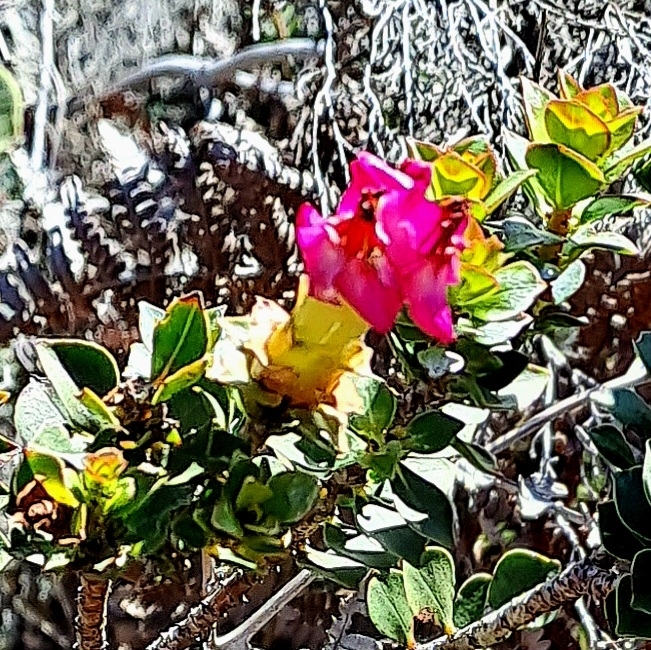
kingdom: Plantae
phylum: Tracheophyta
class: Magnoliopsida
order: Myrtales
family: Penaeaceae
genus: Saltera
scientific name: Saltera sarcocolla
